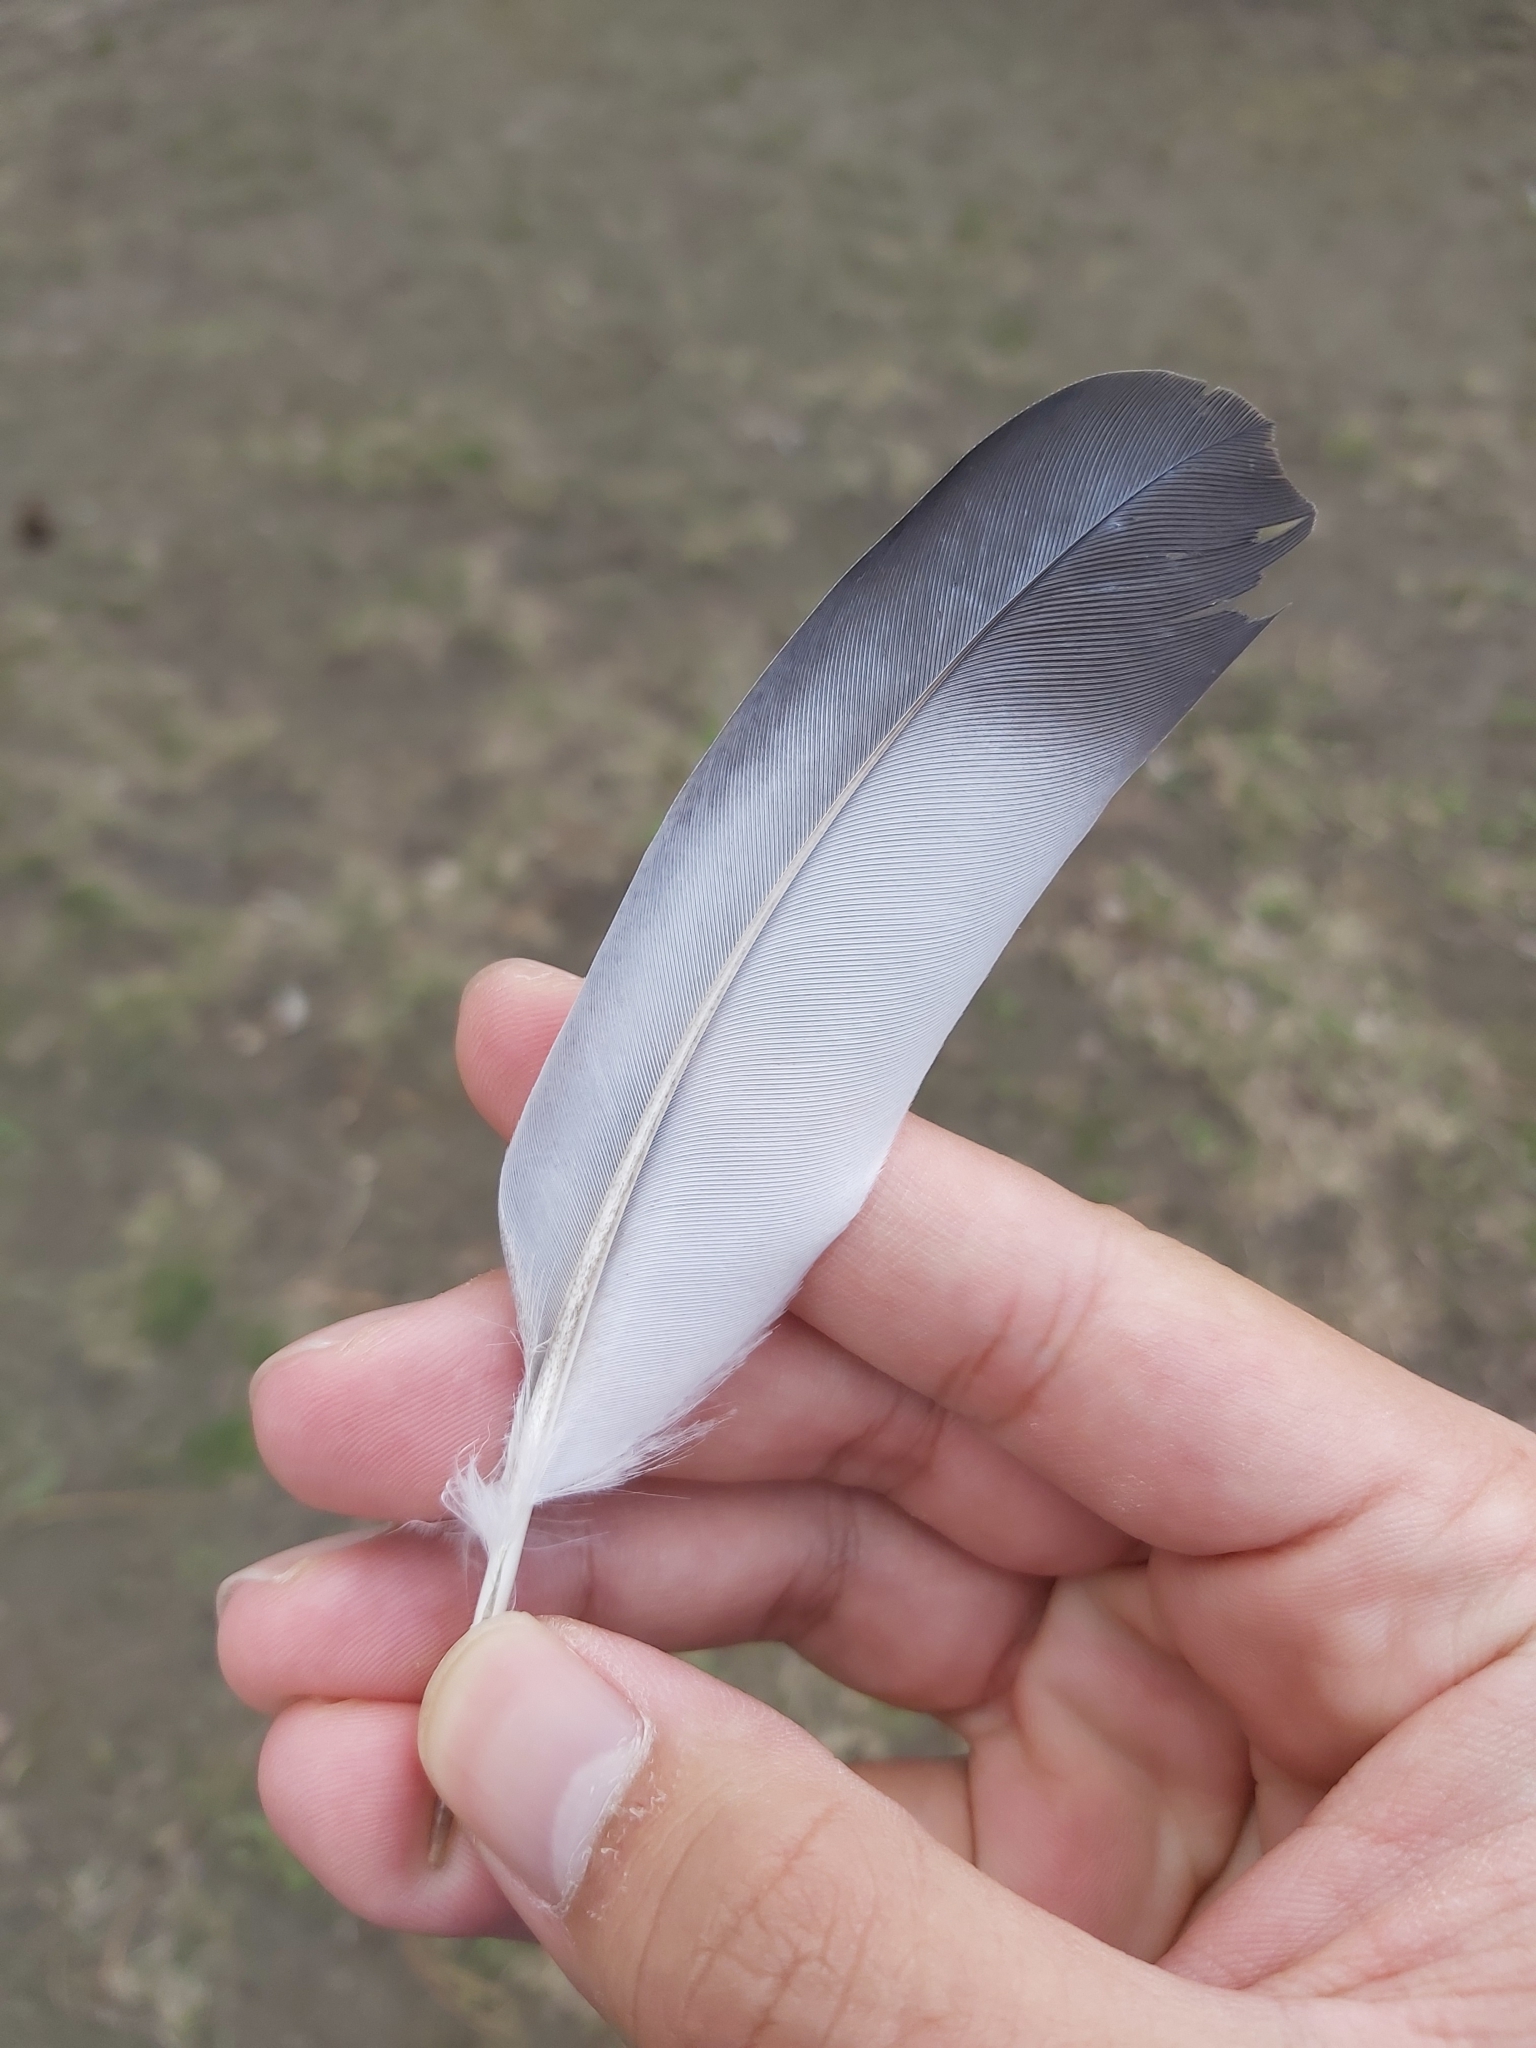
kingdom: Animalia
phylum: Chordata
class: Aves
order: Columbiformes
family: Columbidae
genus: Columba
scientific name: Columba livia
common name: Rock pigeon
